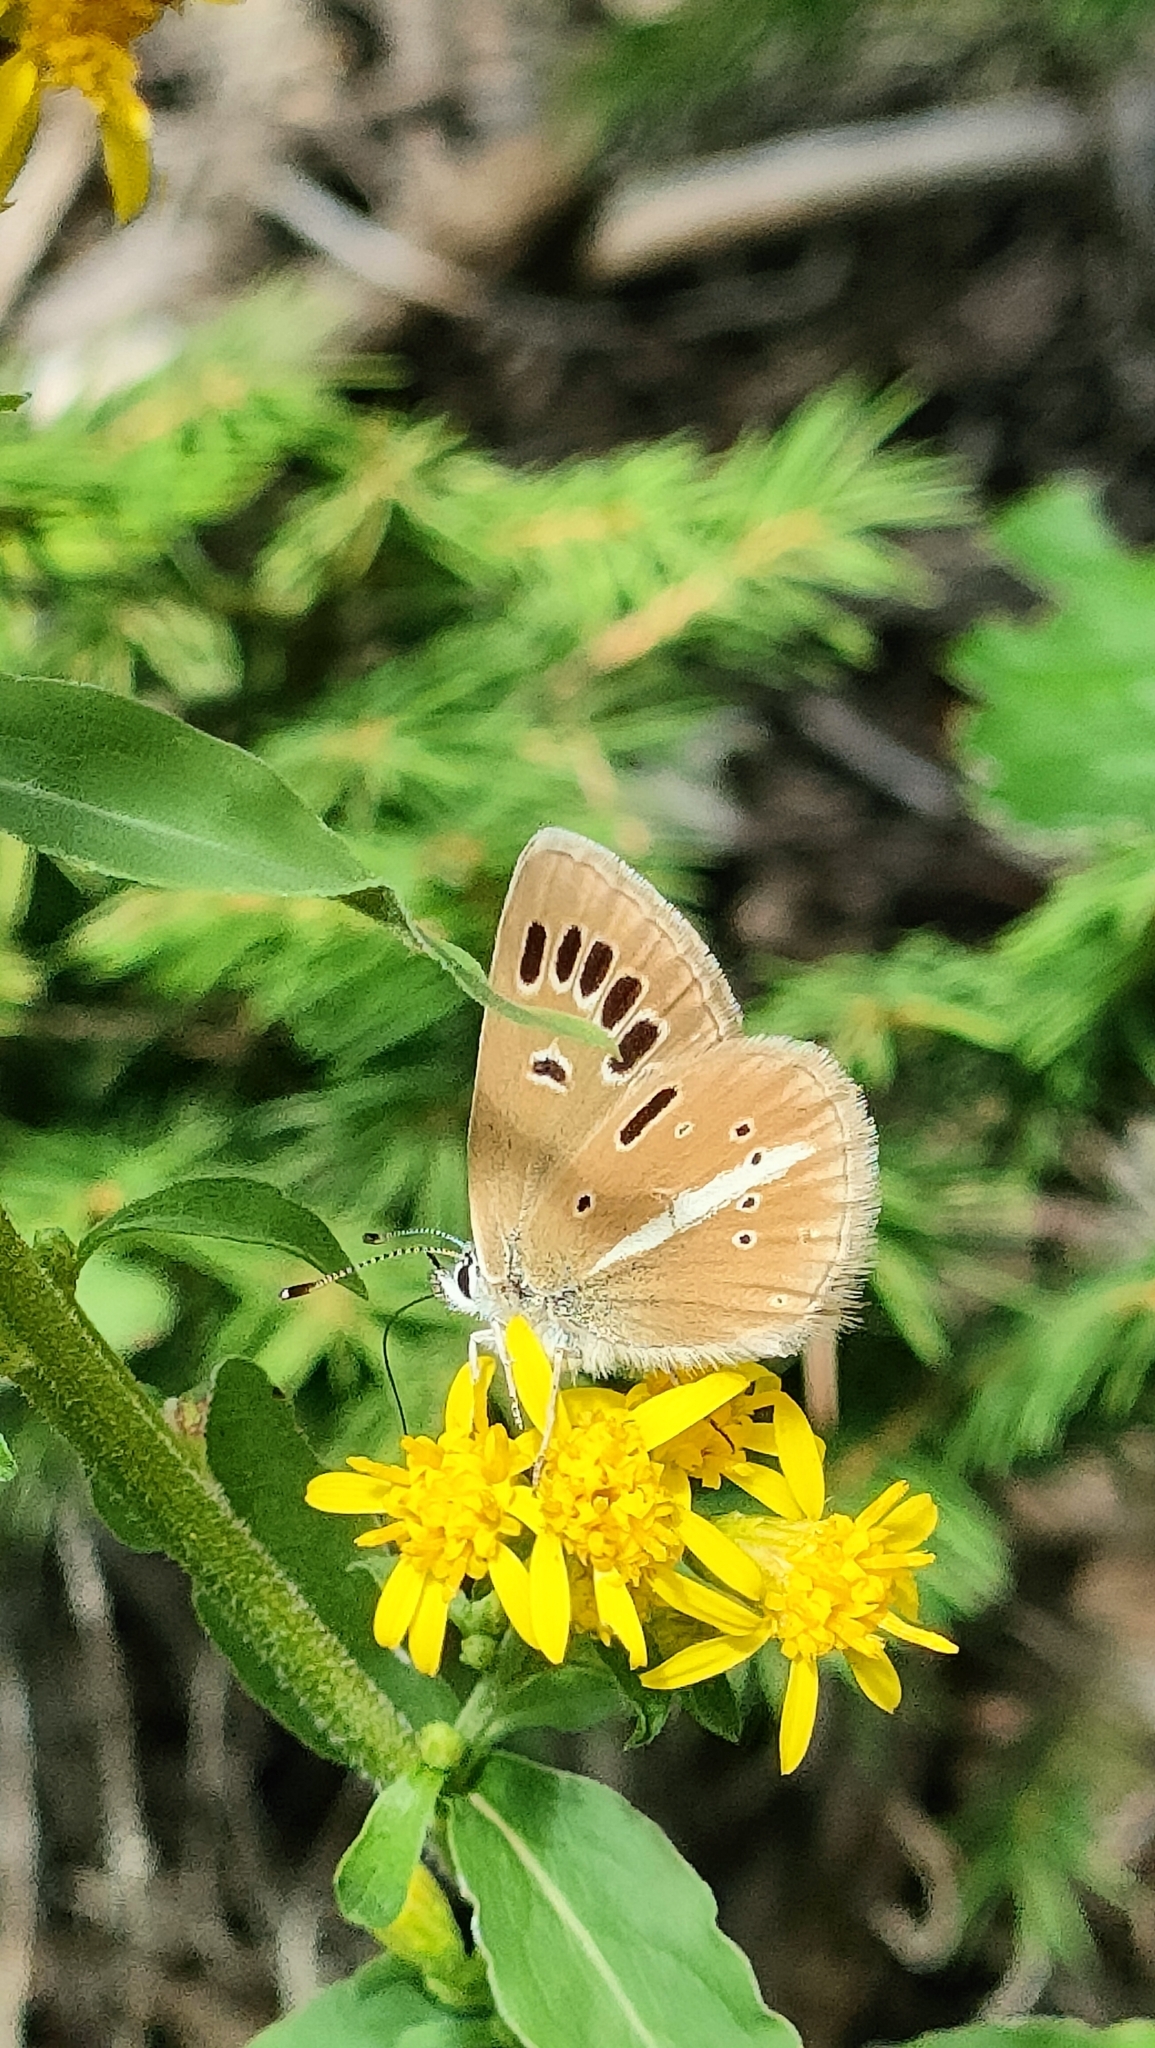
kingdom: Animalia
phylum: Arthropoda
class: Insecta
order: Lepidoptera
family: Lycaenidae
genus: Agrodiaetus
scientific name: Agrodiaetus damon
